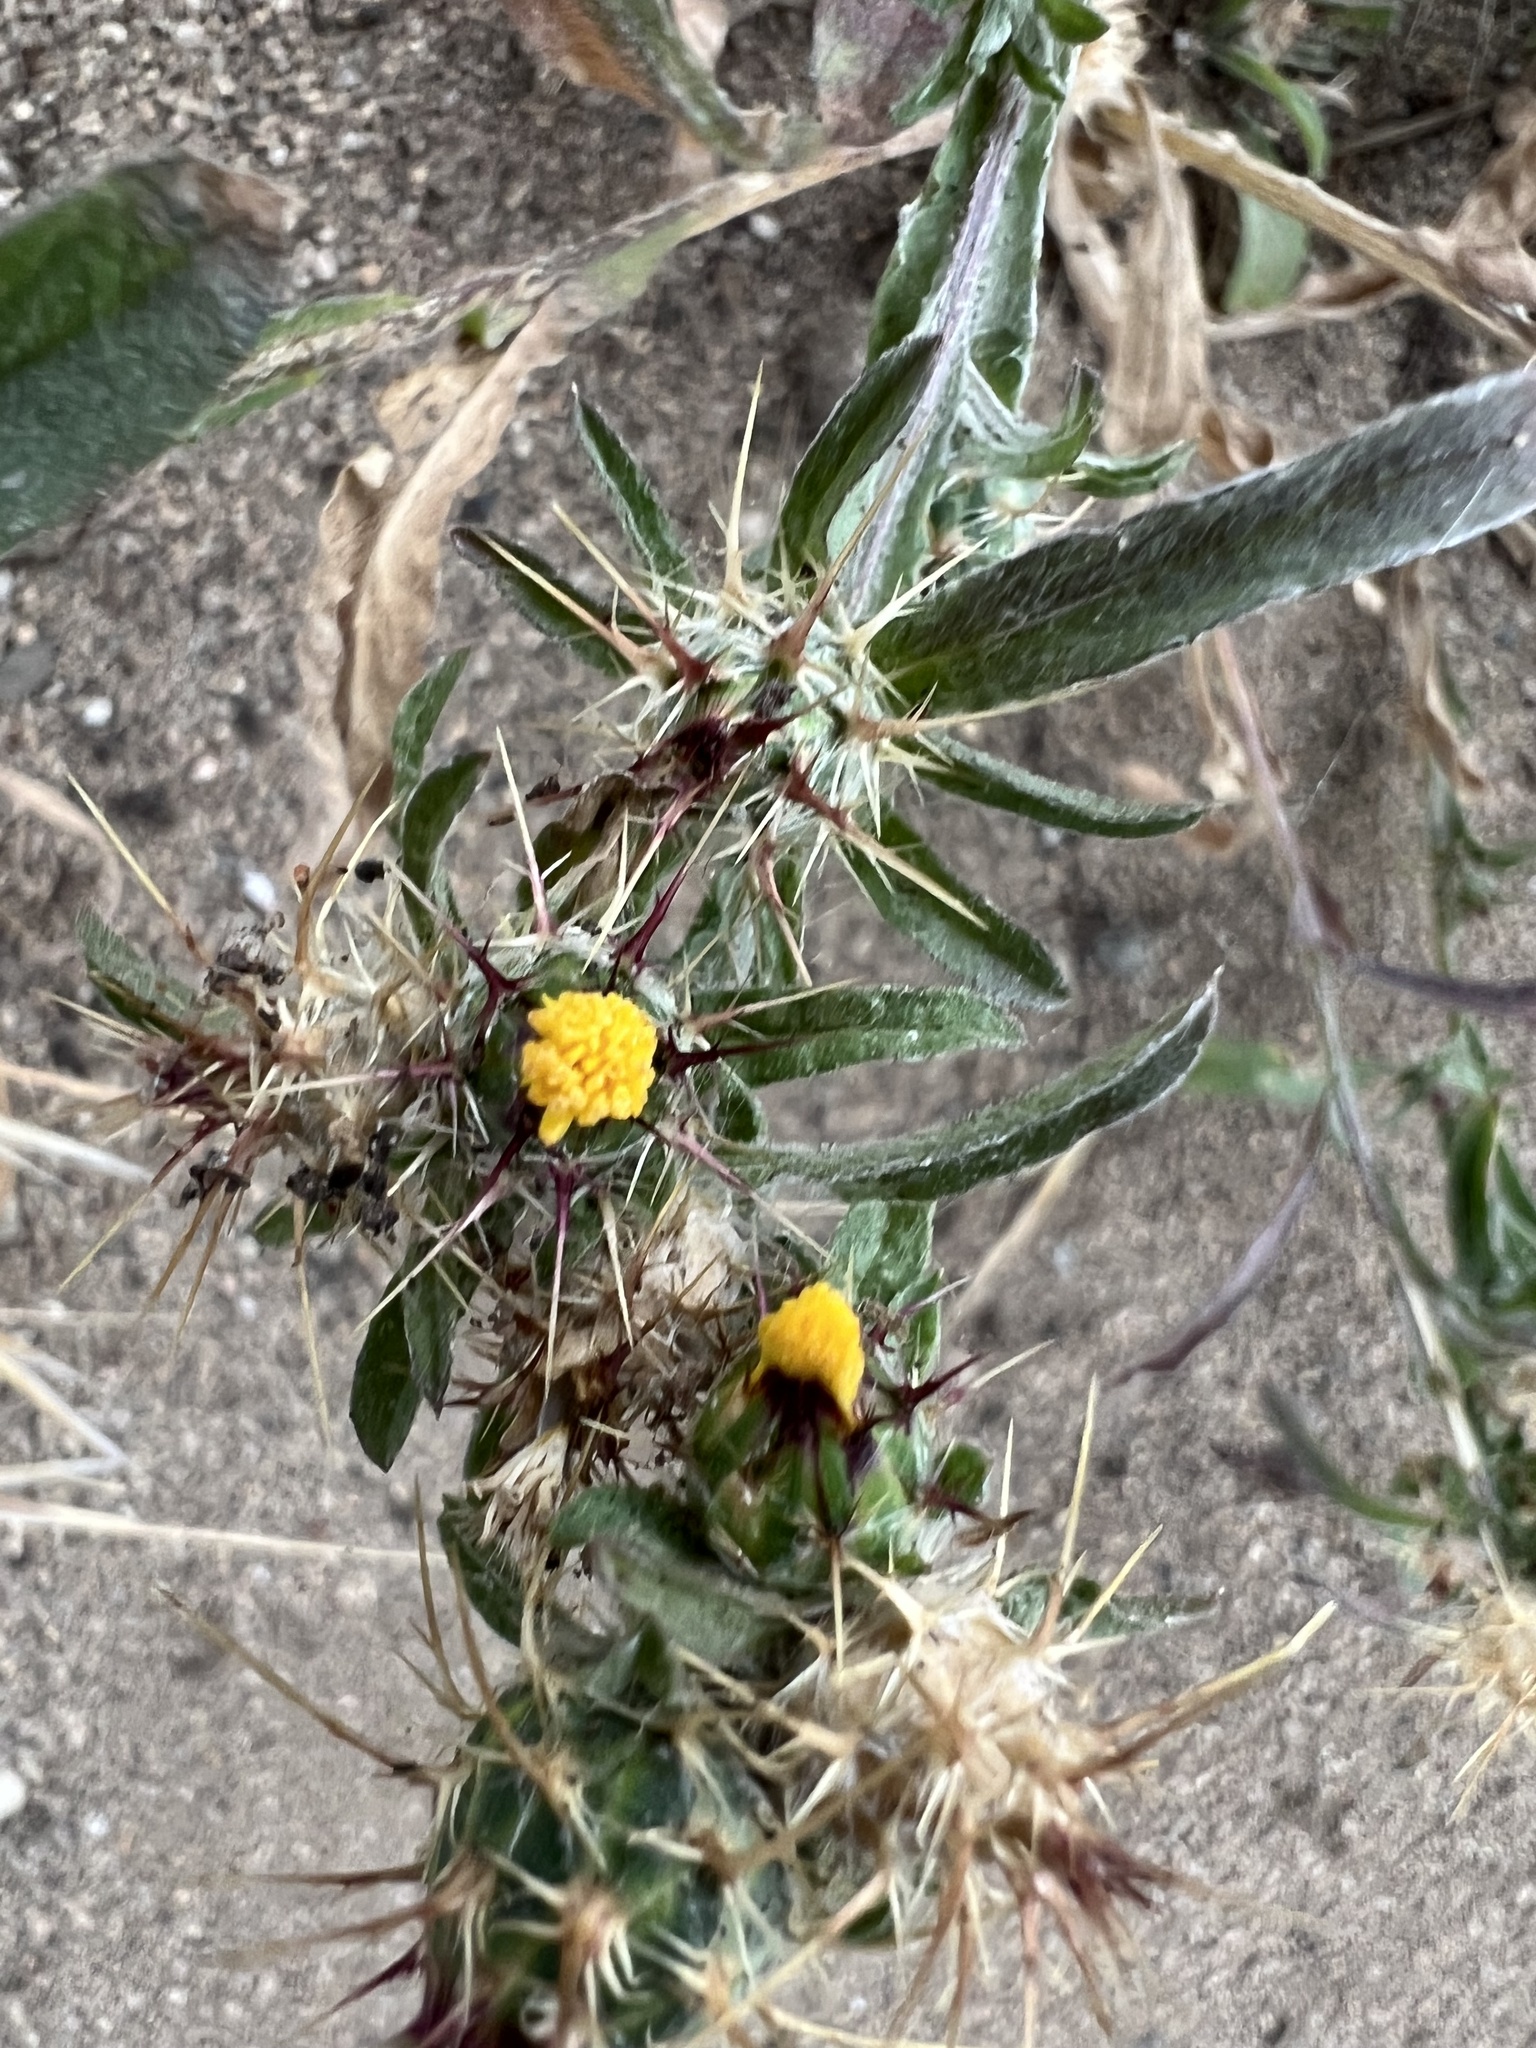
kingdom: Plantae
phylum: Tracheophyta
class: Magnoliopsida
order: Asterales
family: Asteraceae
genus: Centaurea
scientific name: Centaurea melitensis
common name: Maltese star-thistle
